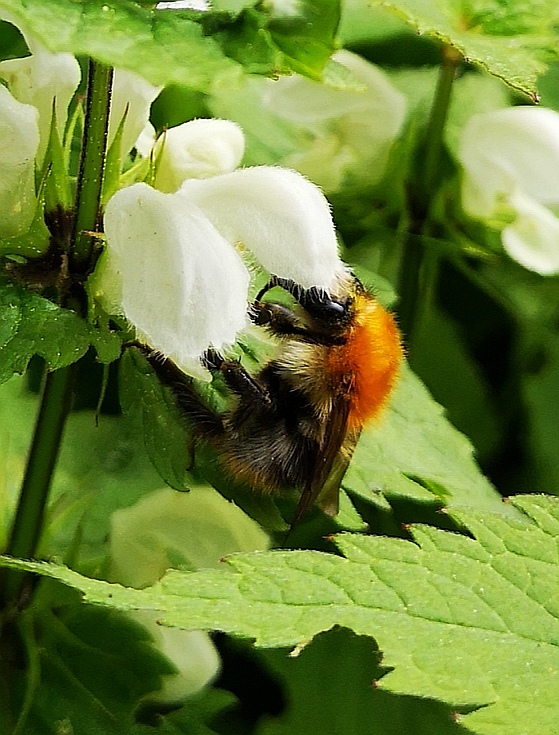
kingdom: Animalia
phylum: Arthropoda
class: Insecta
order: Hymenoptera
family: Apidae
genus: Bombus
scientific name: Bombus pascuorum
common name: Common carder bee
